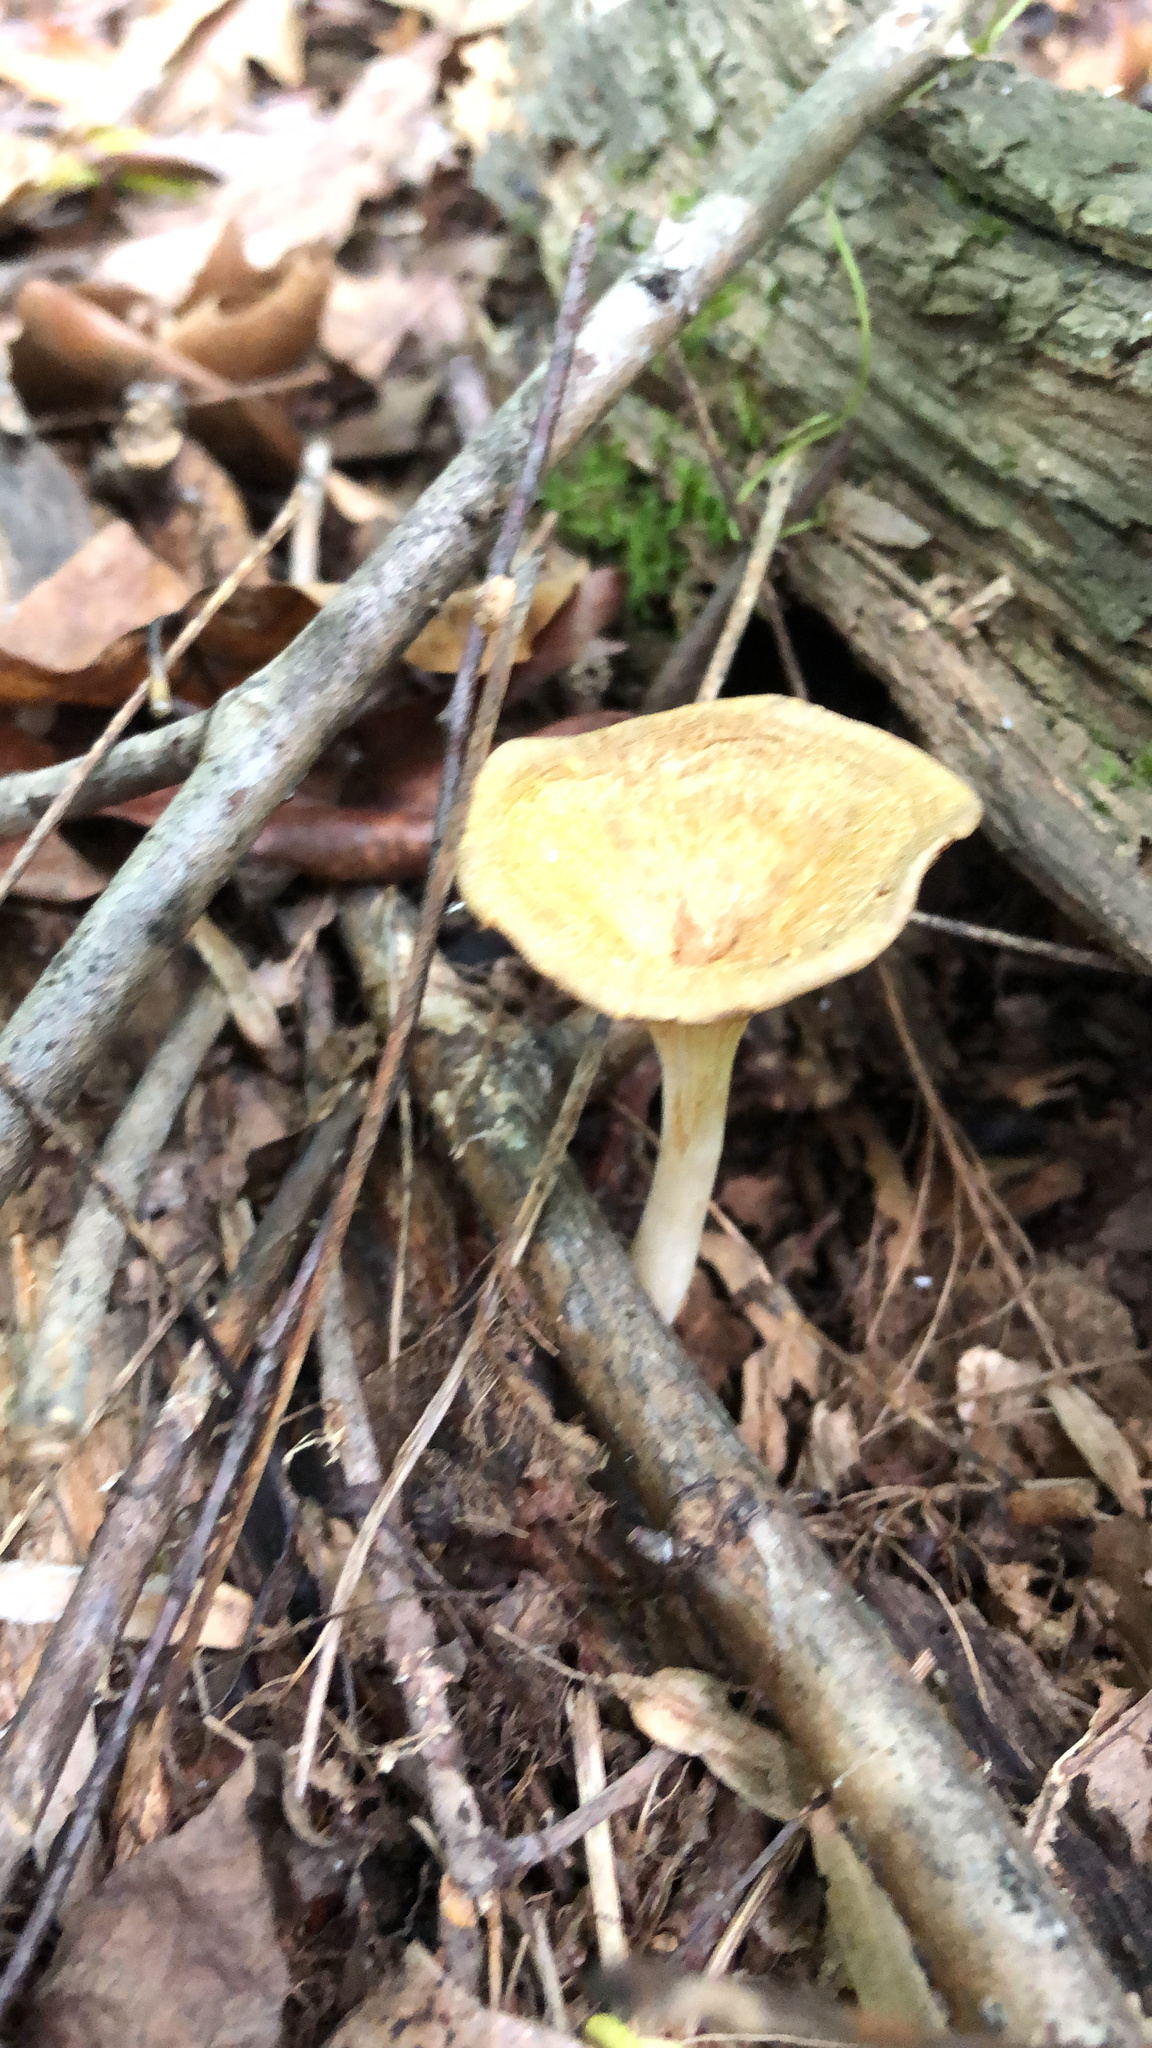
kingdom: Fungi
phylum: Basidiomycota
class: Agaricomycetes
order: Agaricales
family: Tricholomataceae
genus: Infundibulicybe
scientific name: Infundibulicybe gibba
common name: Common funnel
